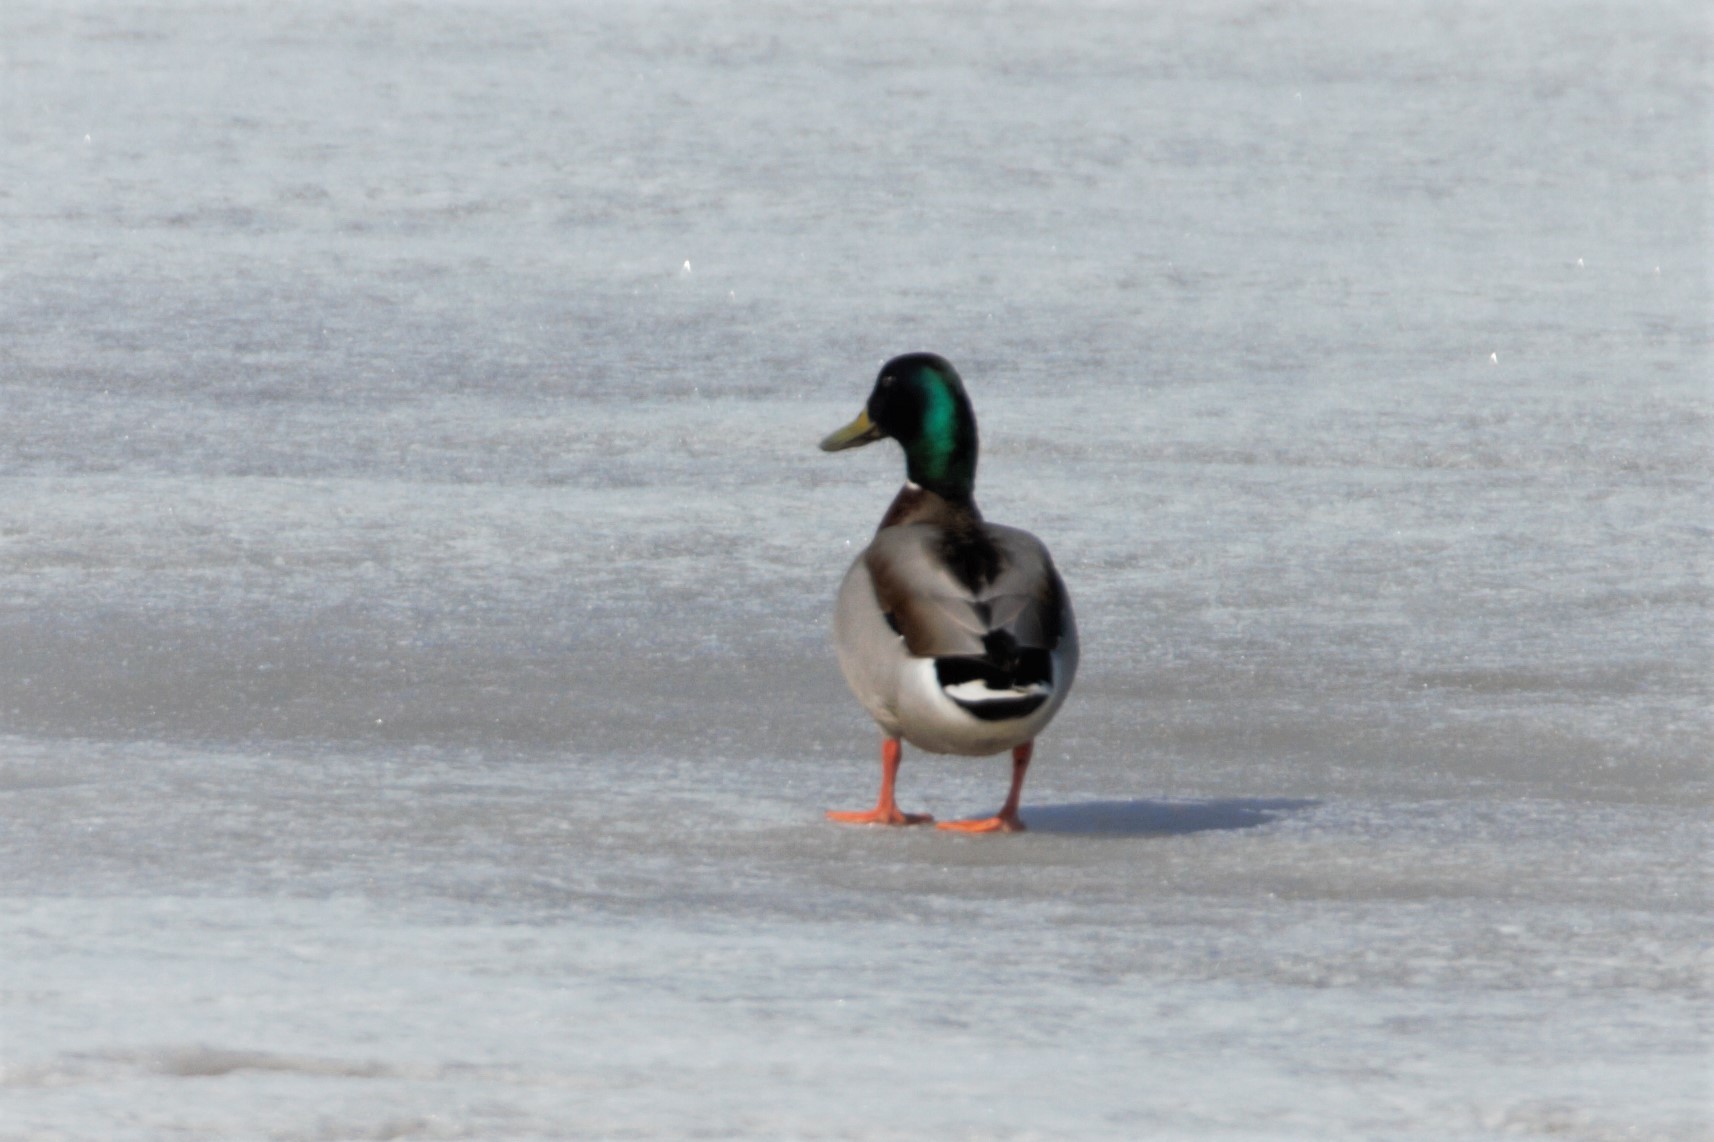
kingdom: Animalia
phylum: Chordata
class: Aves
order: Anseriformes
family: Anatidae
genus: Anas
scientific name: Anas platyrhynchos
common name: Mallard
